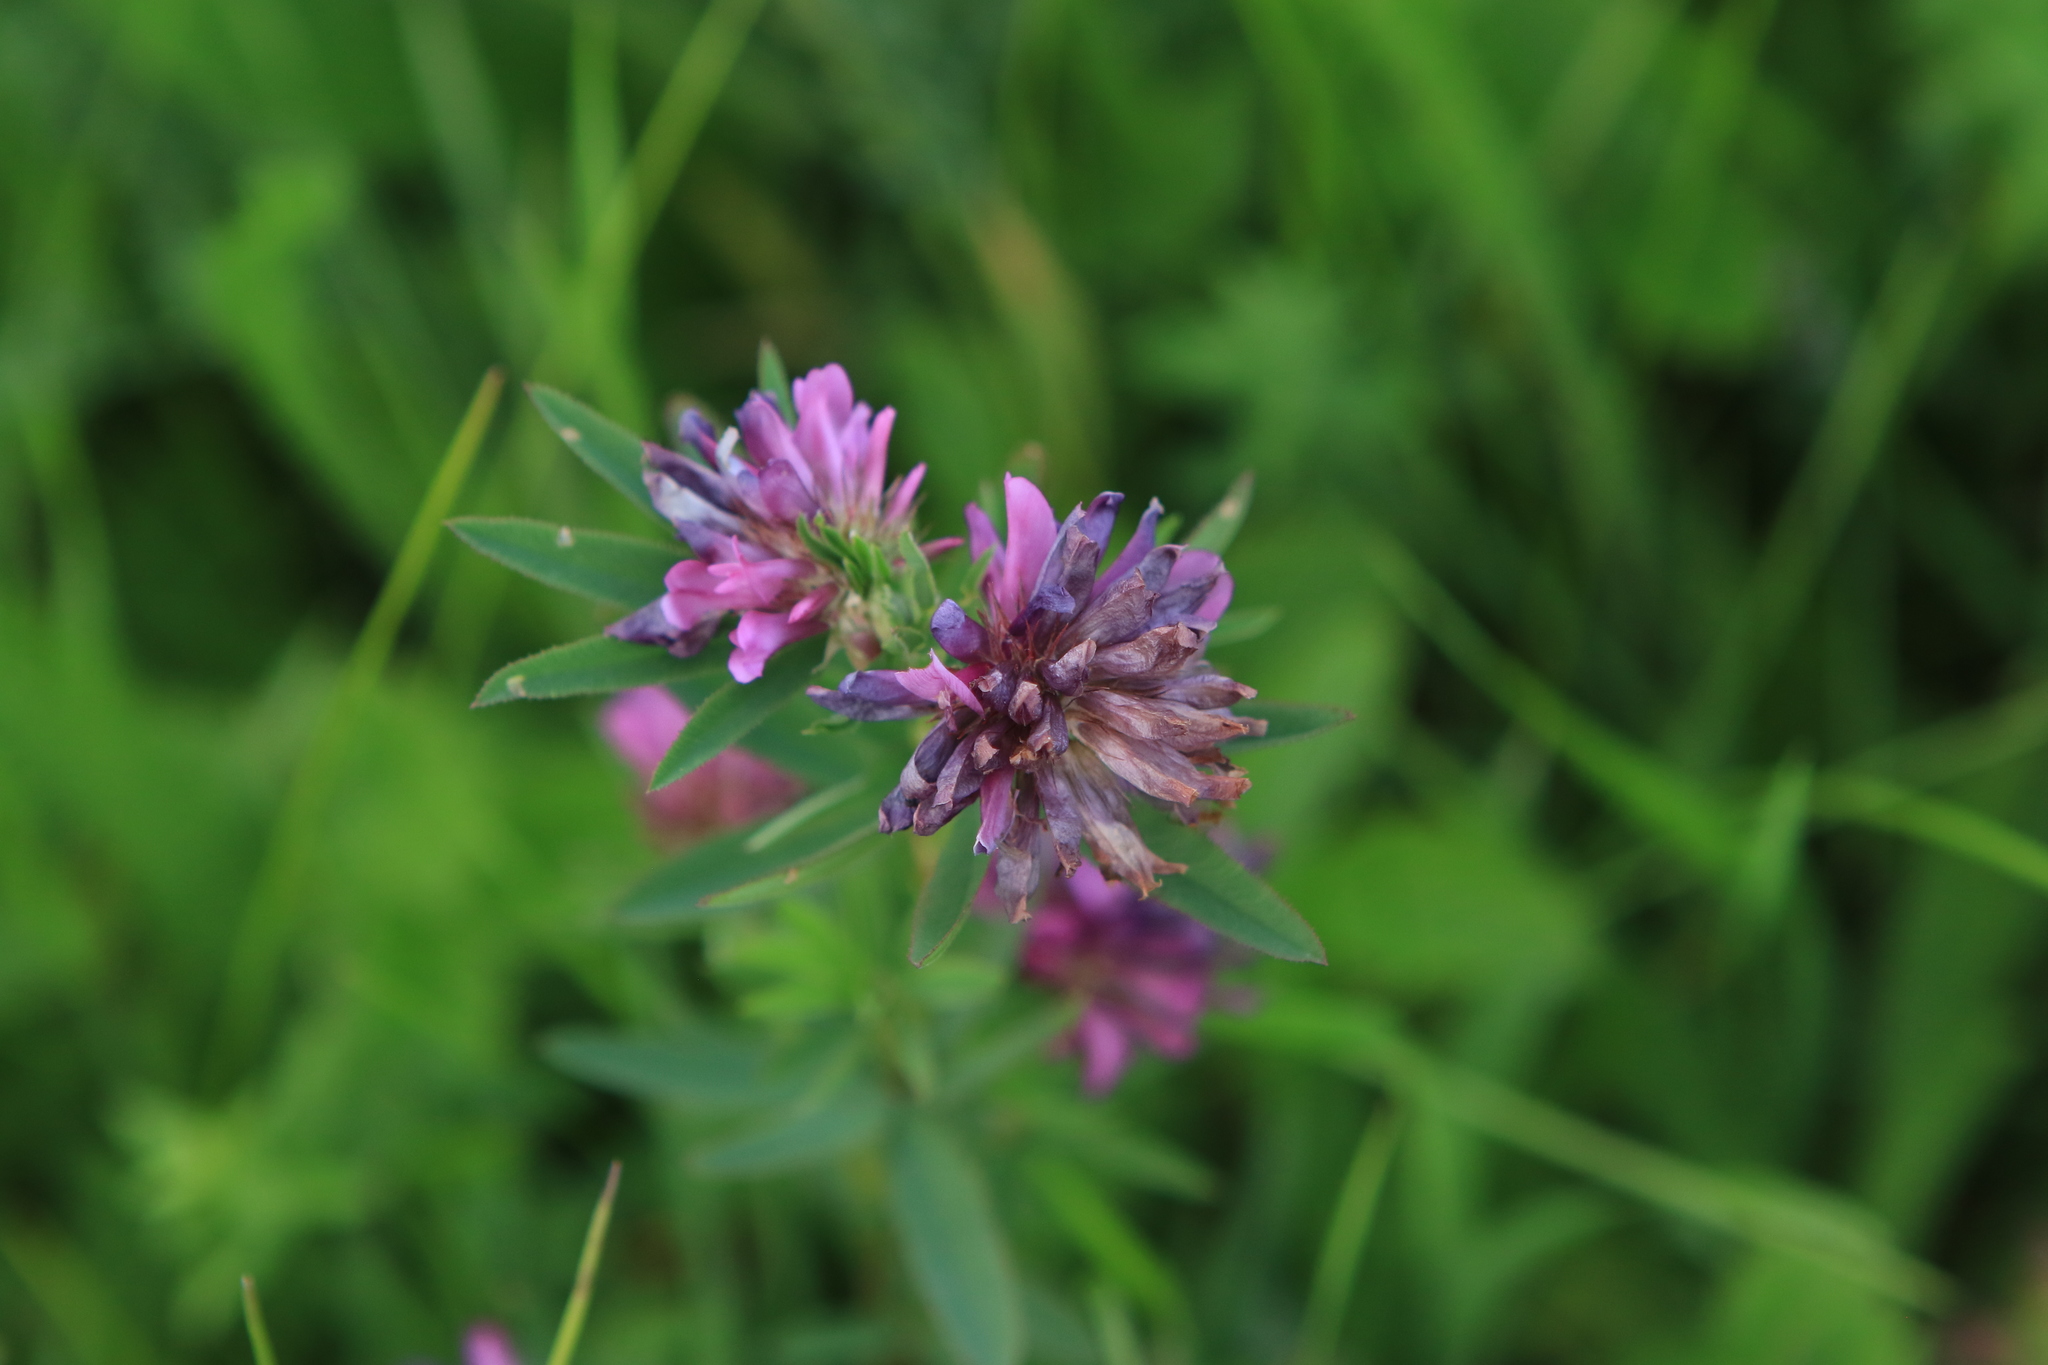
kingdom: Plantae
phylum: Tracheophyta
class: Magnoliopsida
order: Fabales
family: Fabaceae
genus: Trifolium
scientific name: Trifolium lupinaster
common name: Lupine clover
